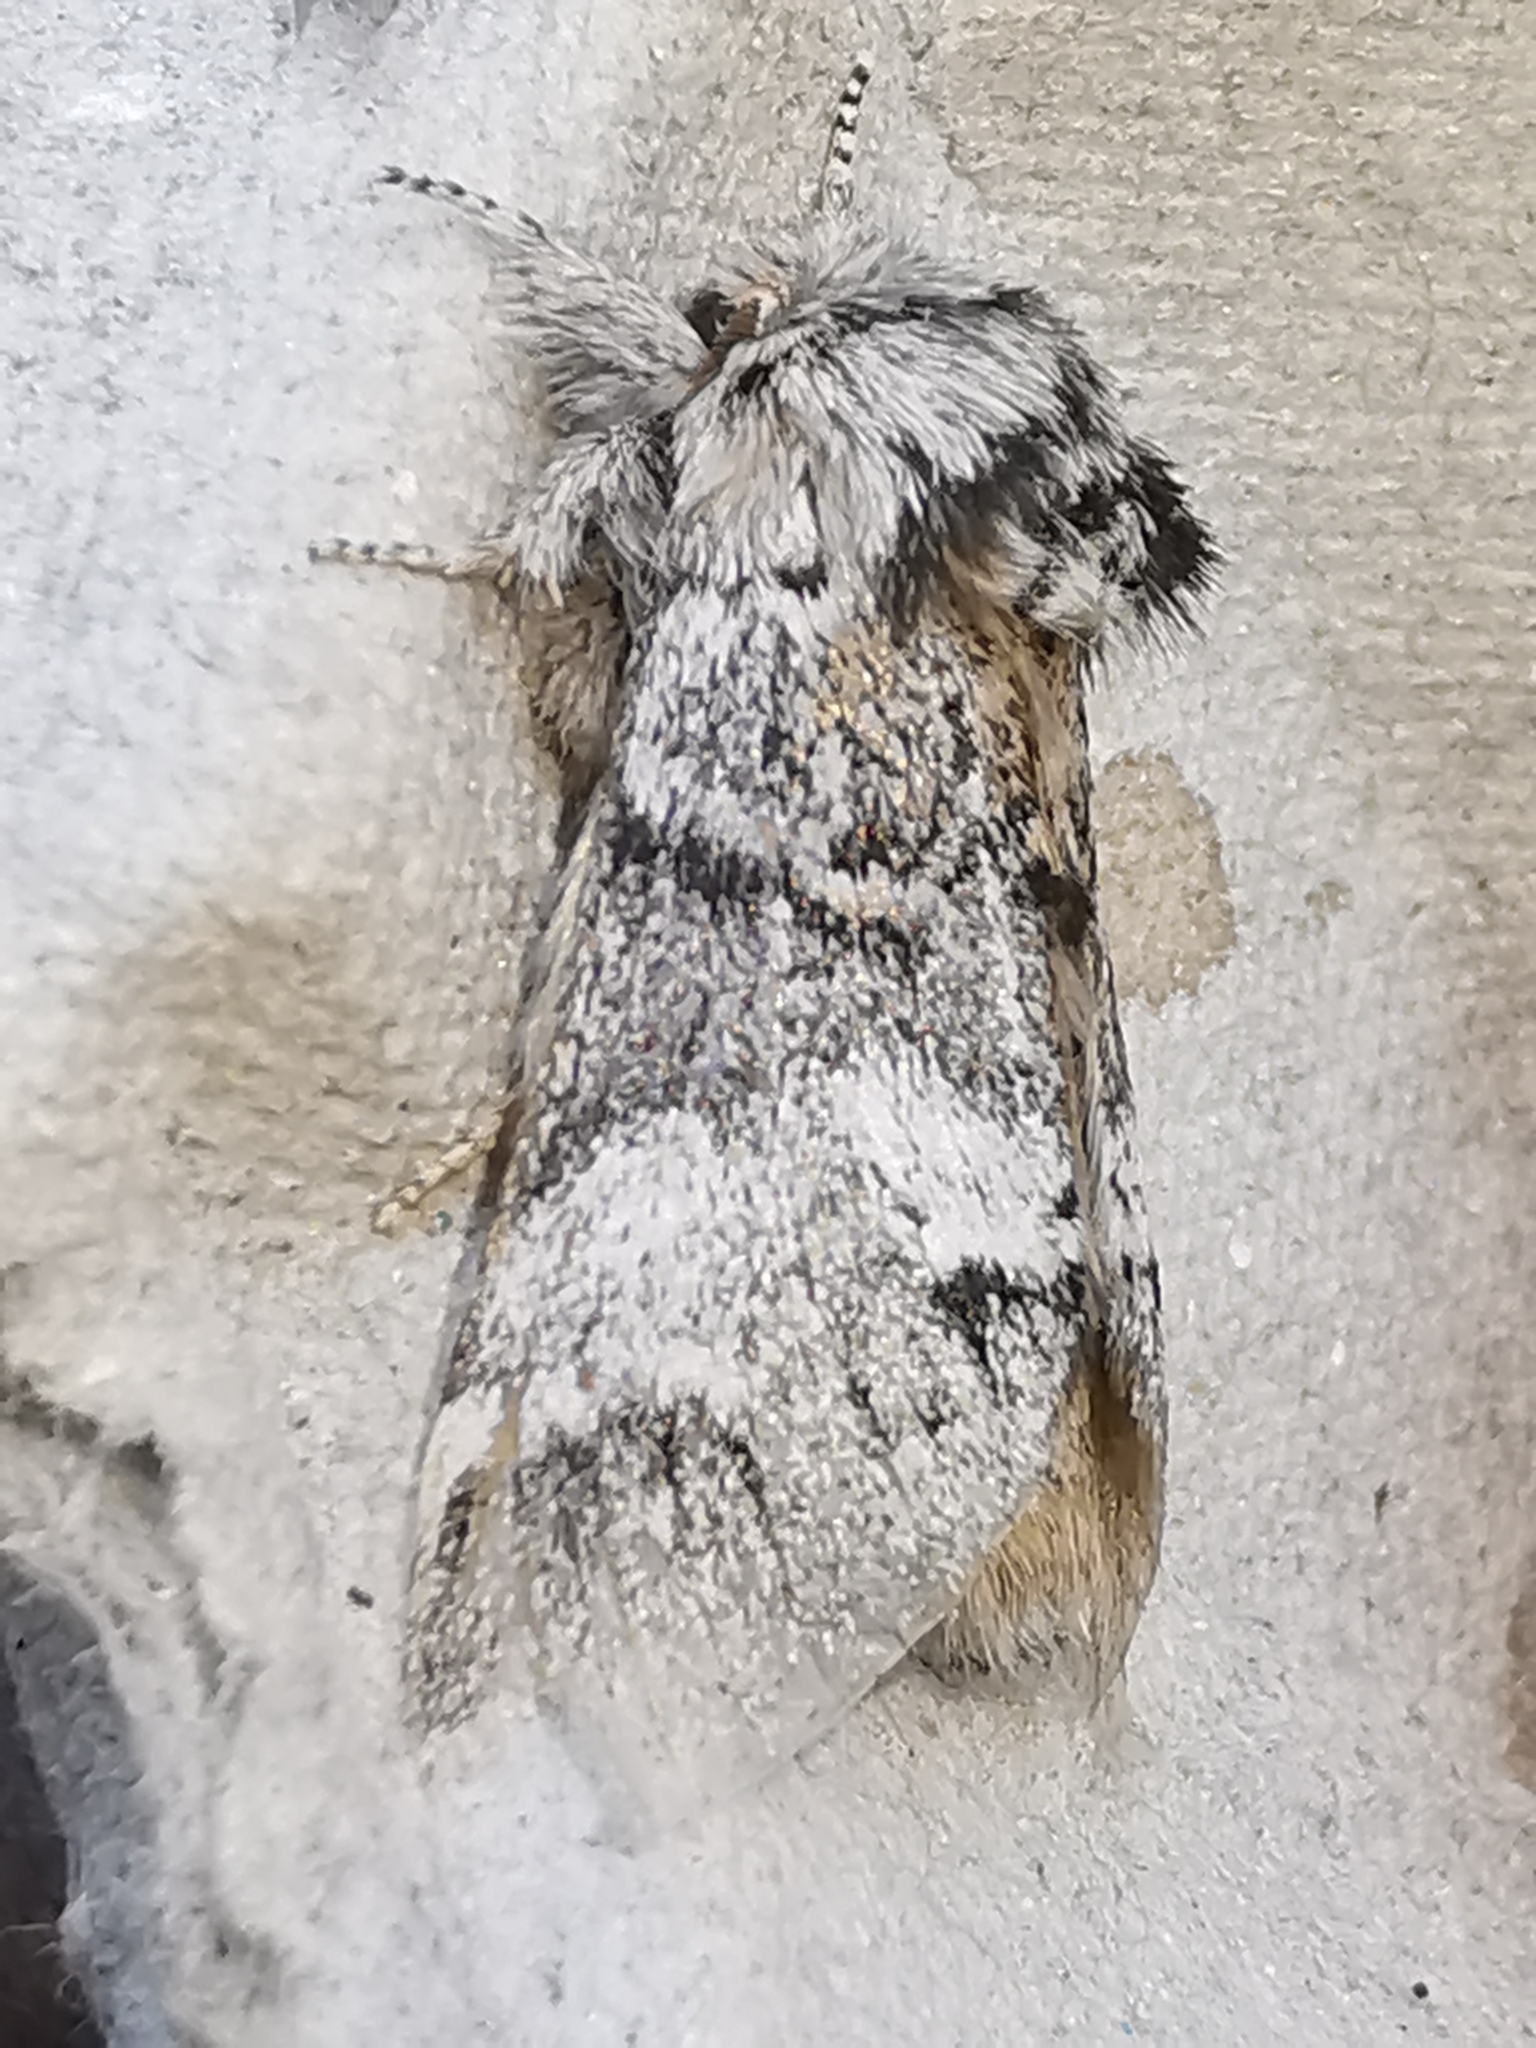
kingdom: Animalia
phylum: Arthropoda
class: Insecta
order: Lepidoptera
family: Notodontidae
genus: Drymonia
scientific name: Drymonia dodonaea
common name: Marbled brown
